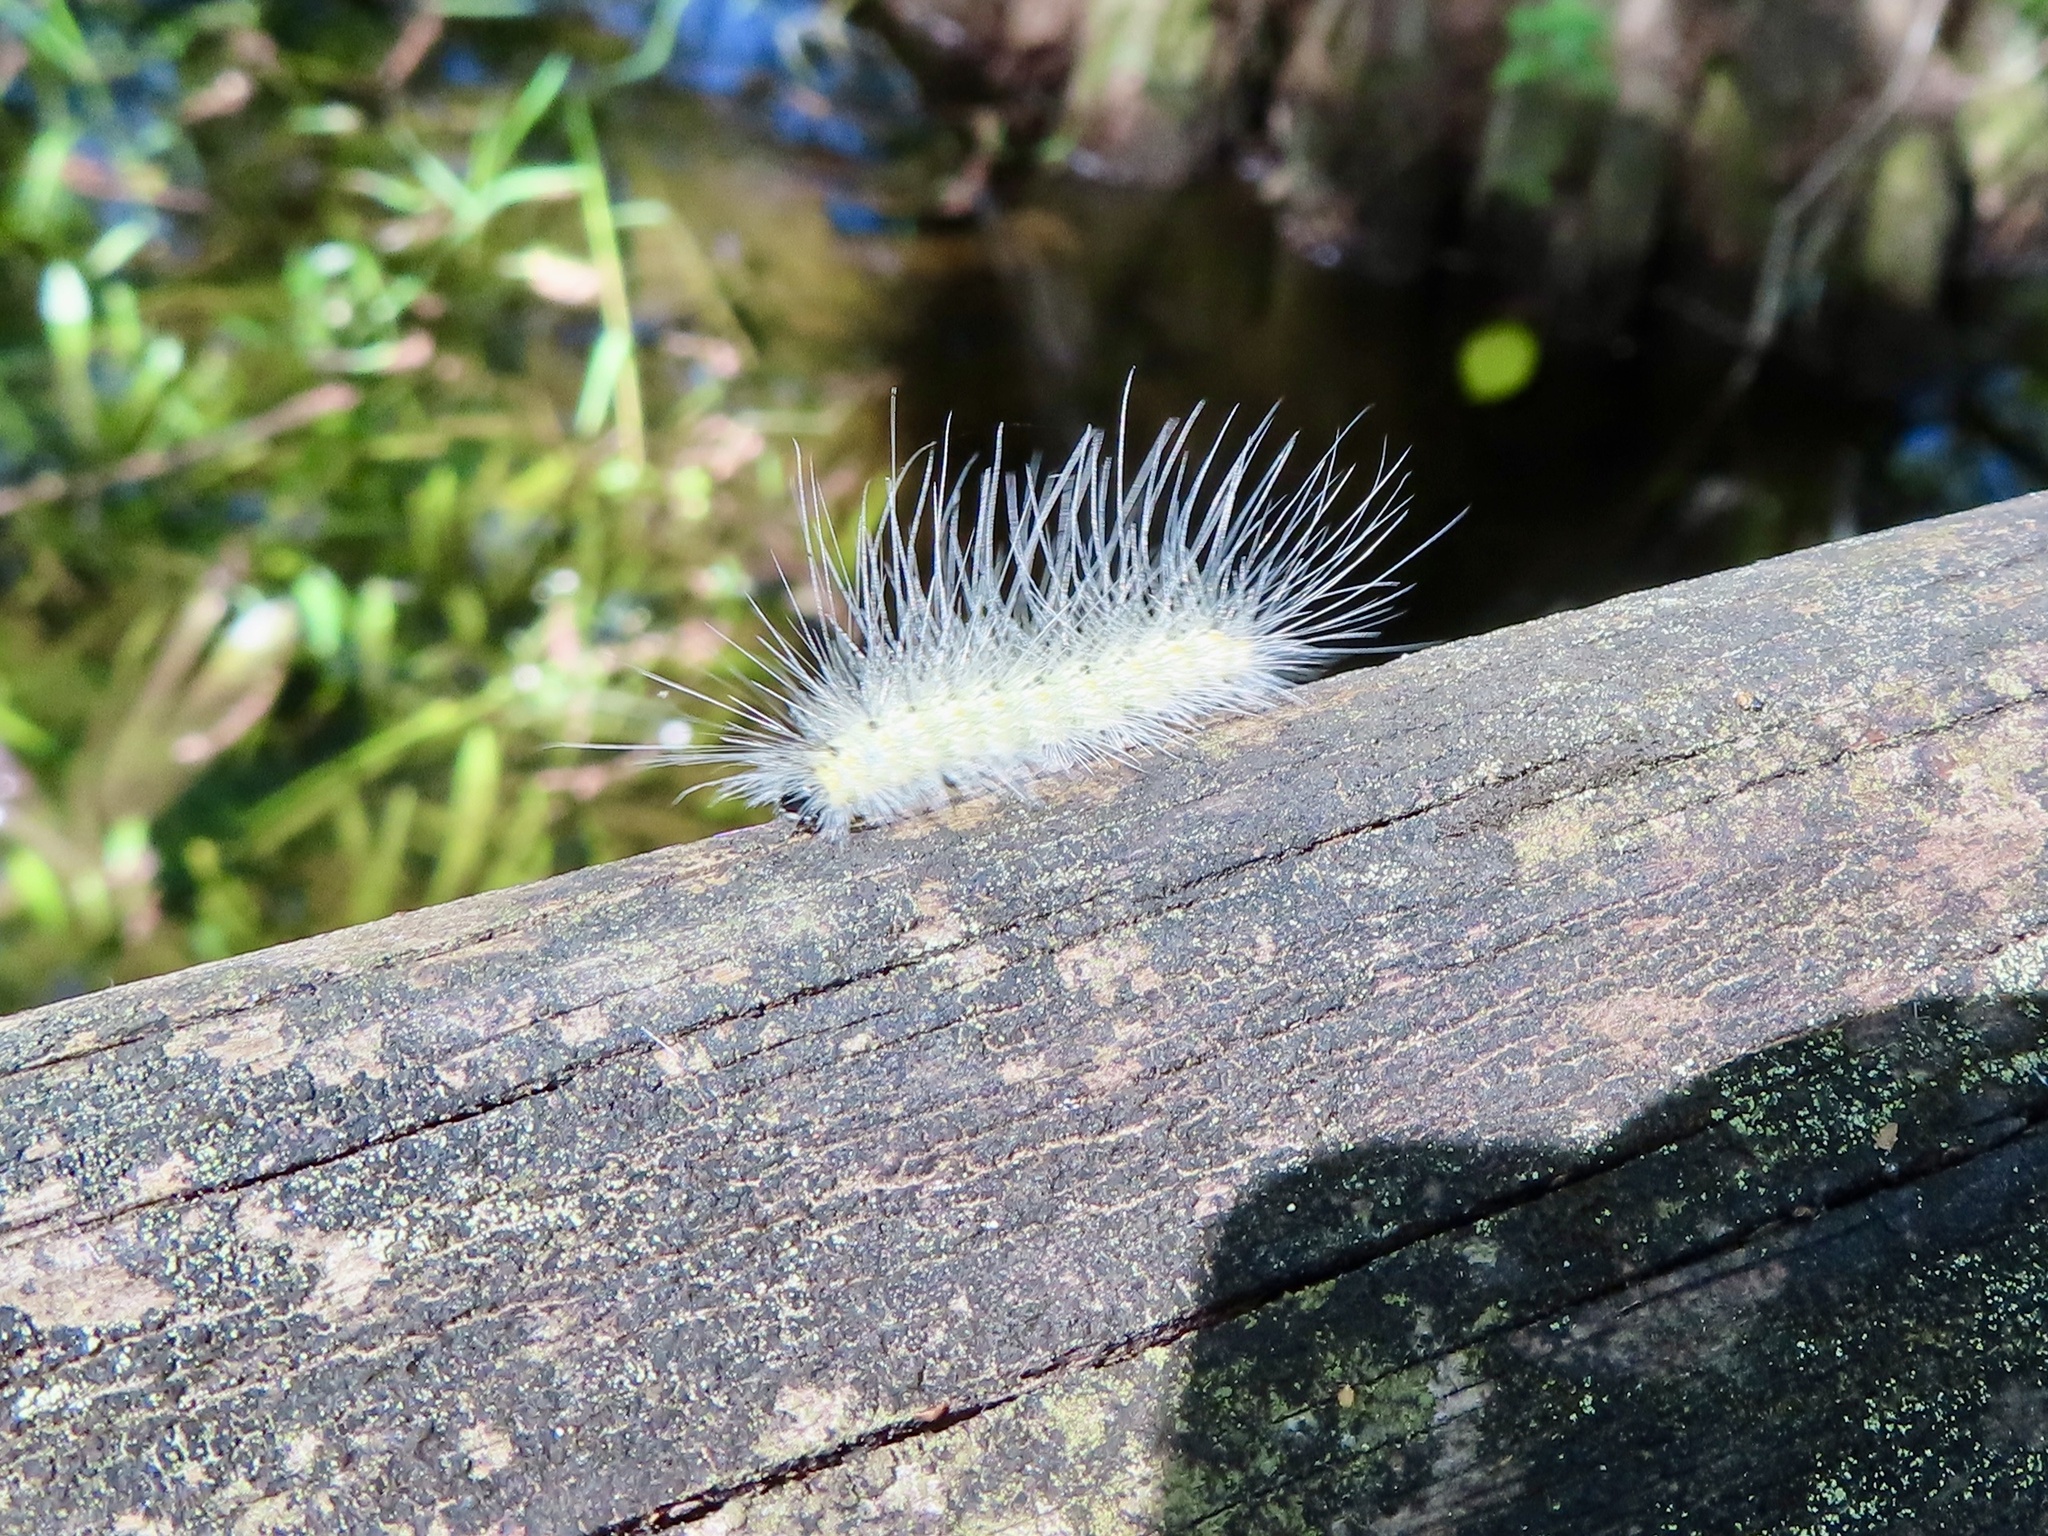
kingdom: Animalia
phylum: Arthropoda
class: Insecta
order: Lepidoptera
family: Erebidae
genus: Hyphantria
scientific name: Hyphantria cunea
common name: American white moth
